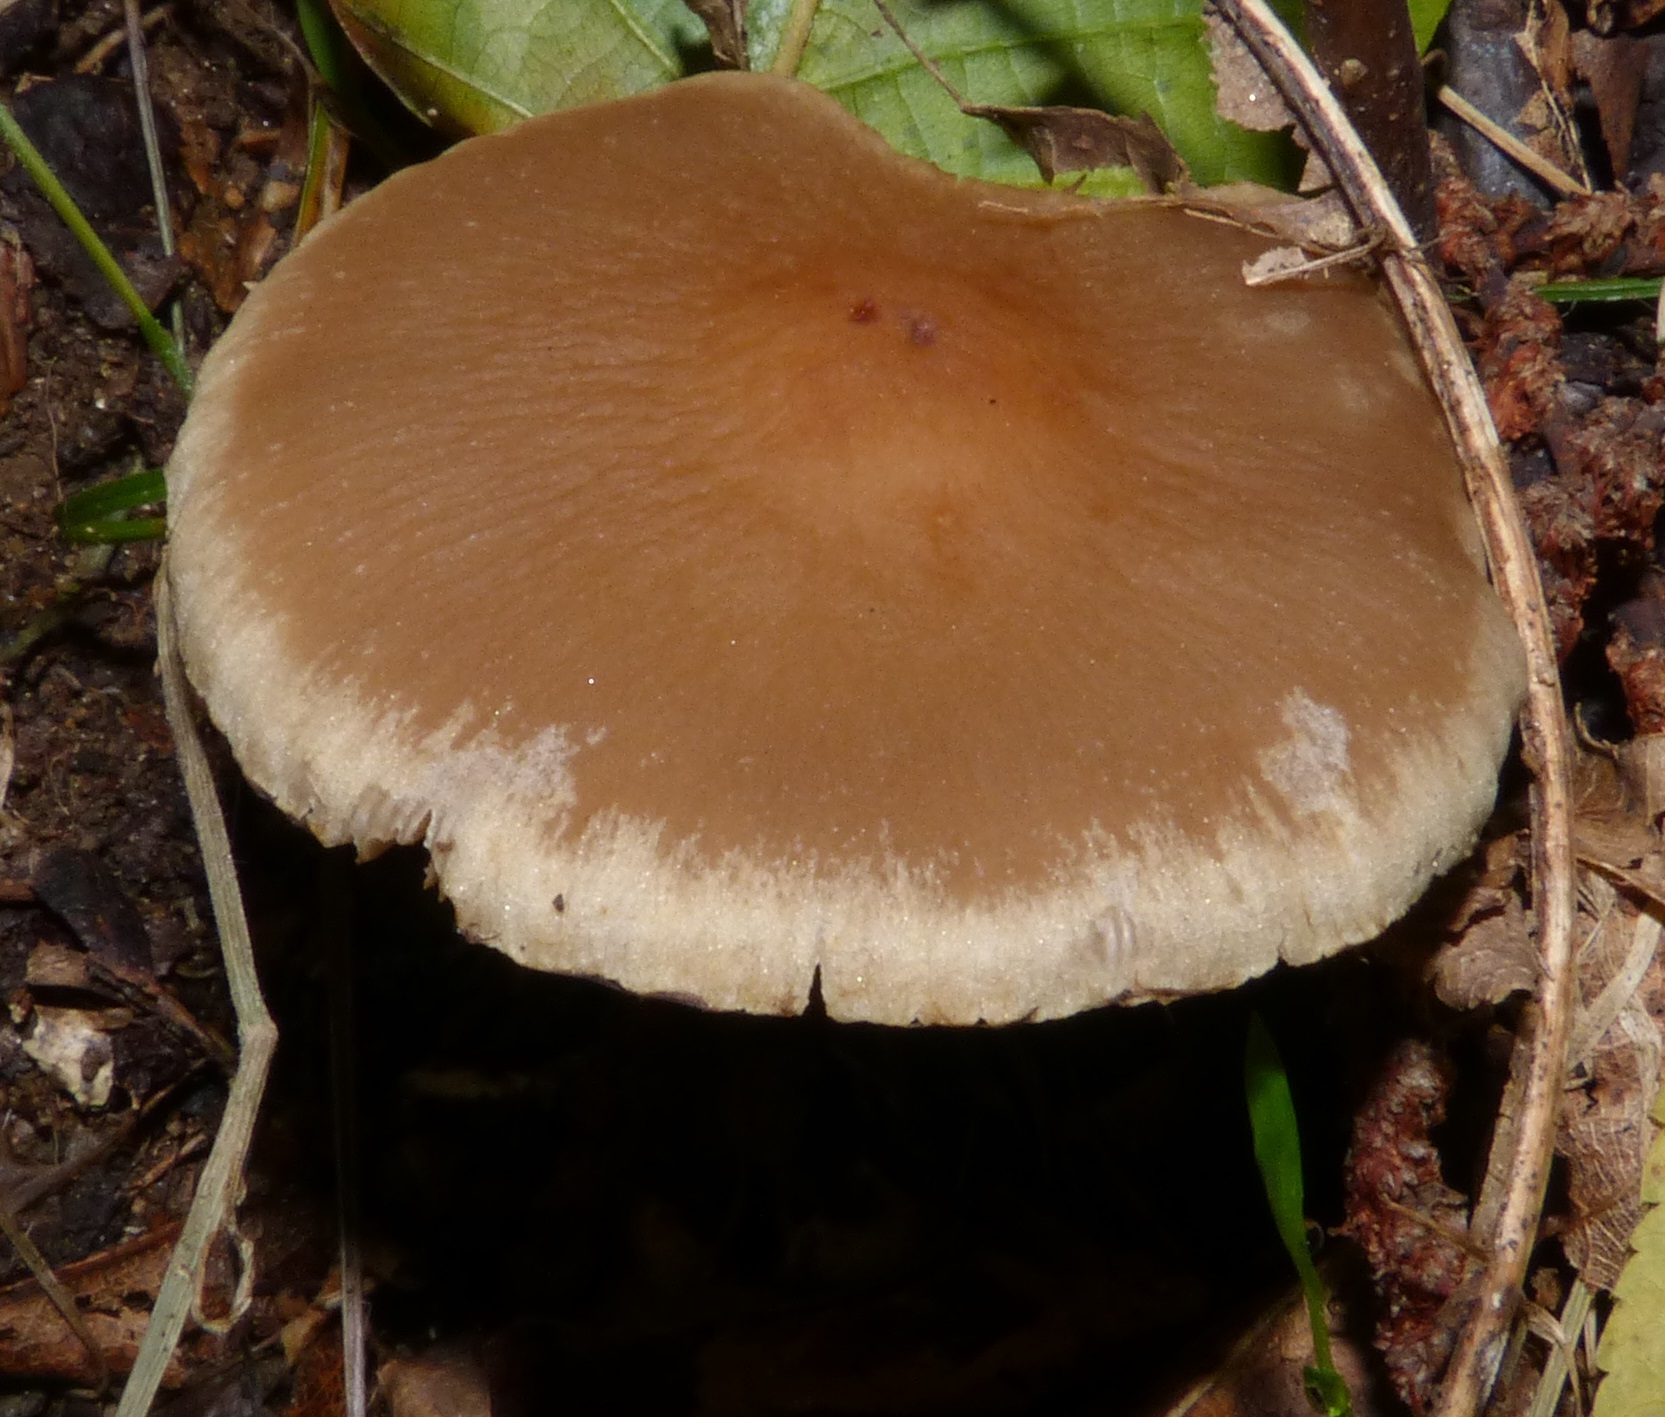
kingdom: Fungi
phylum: Basidiomycota
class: Agaricomycetes
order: Agaricales
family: Psathyrellaceae
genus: Psathyrella
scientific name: Psathyrella piluliformis
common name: Common stump brittlestem
